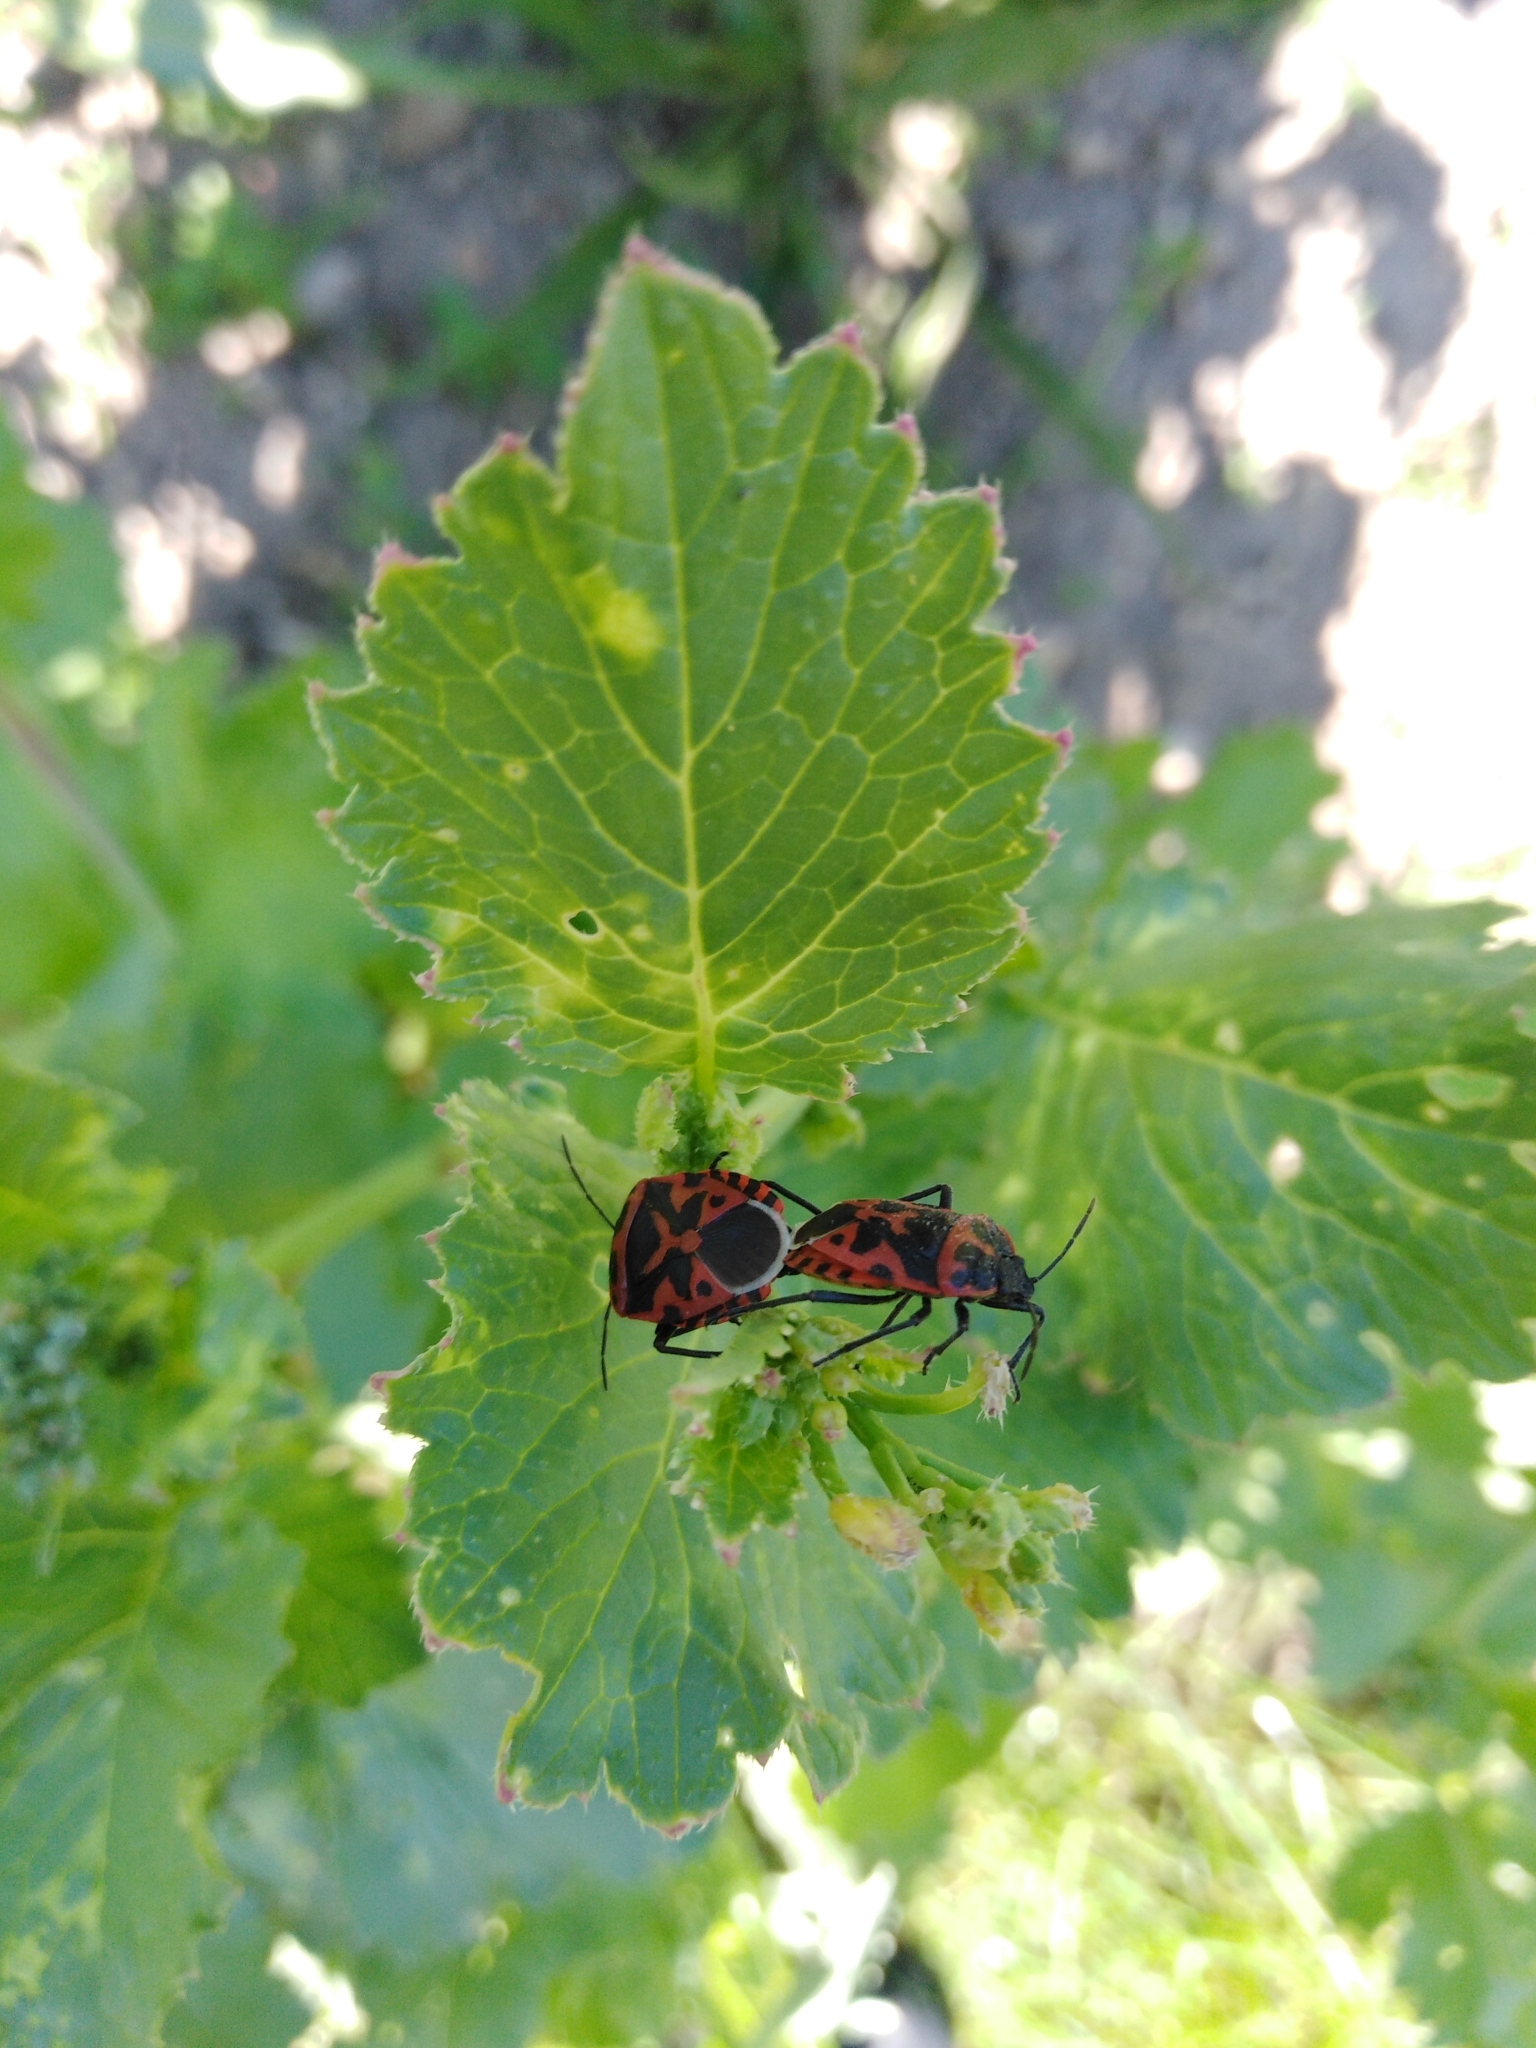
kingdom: Animalia
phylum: Arthropoda
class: Insecta
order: Hemiptera
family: Pentatomidae
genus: Eurydema
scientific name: Eurydema ventralis
